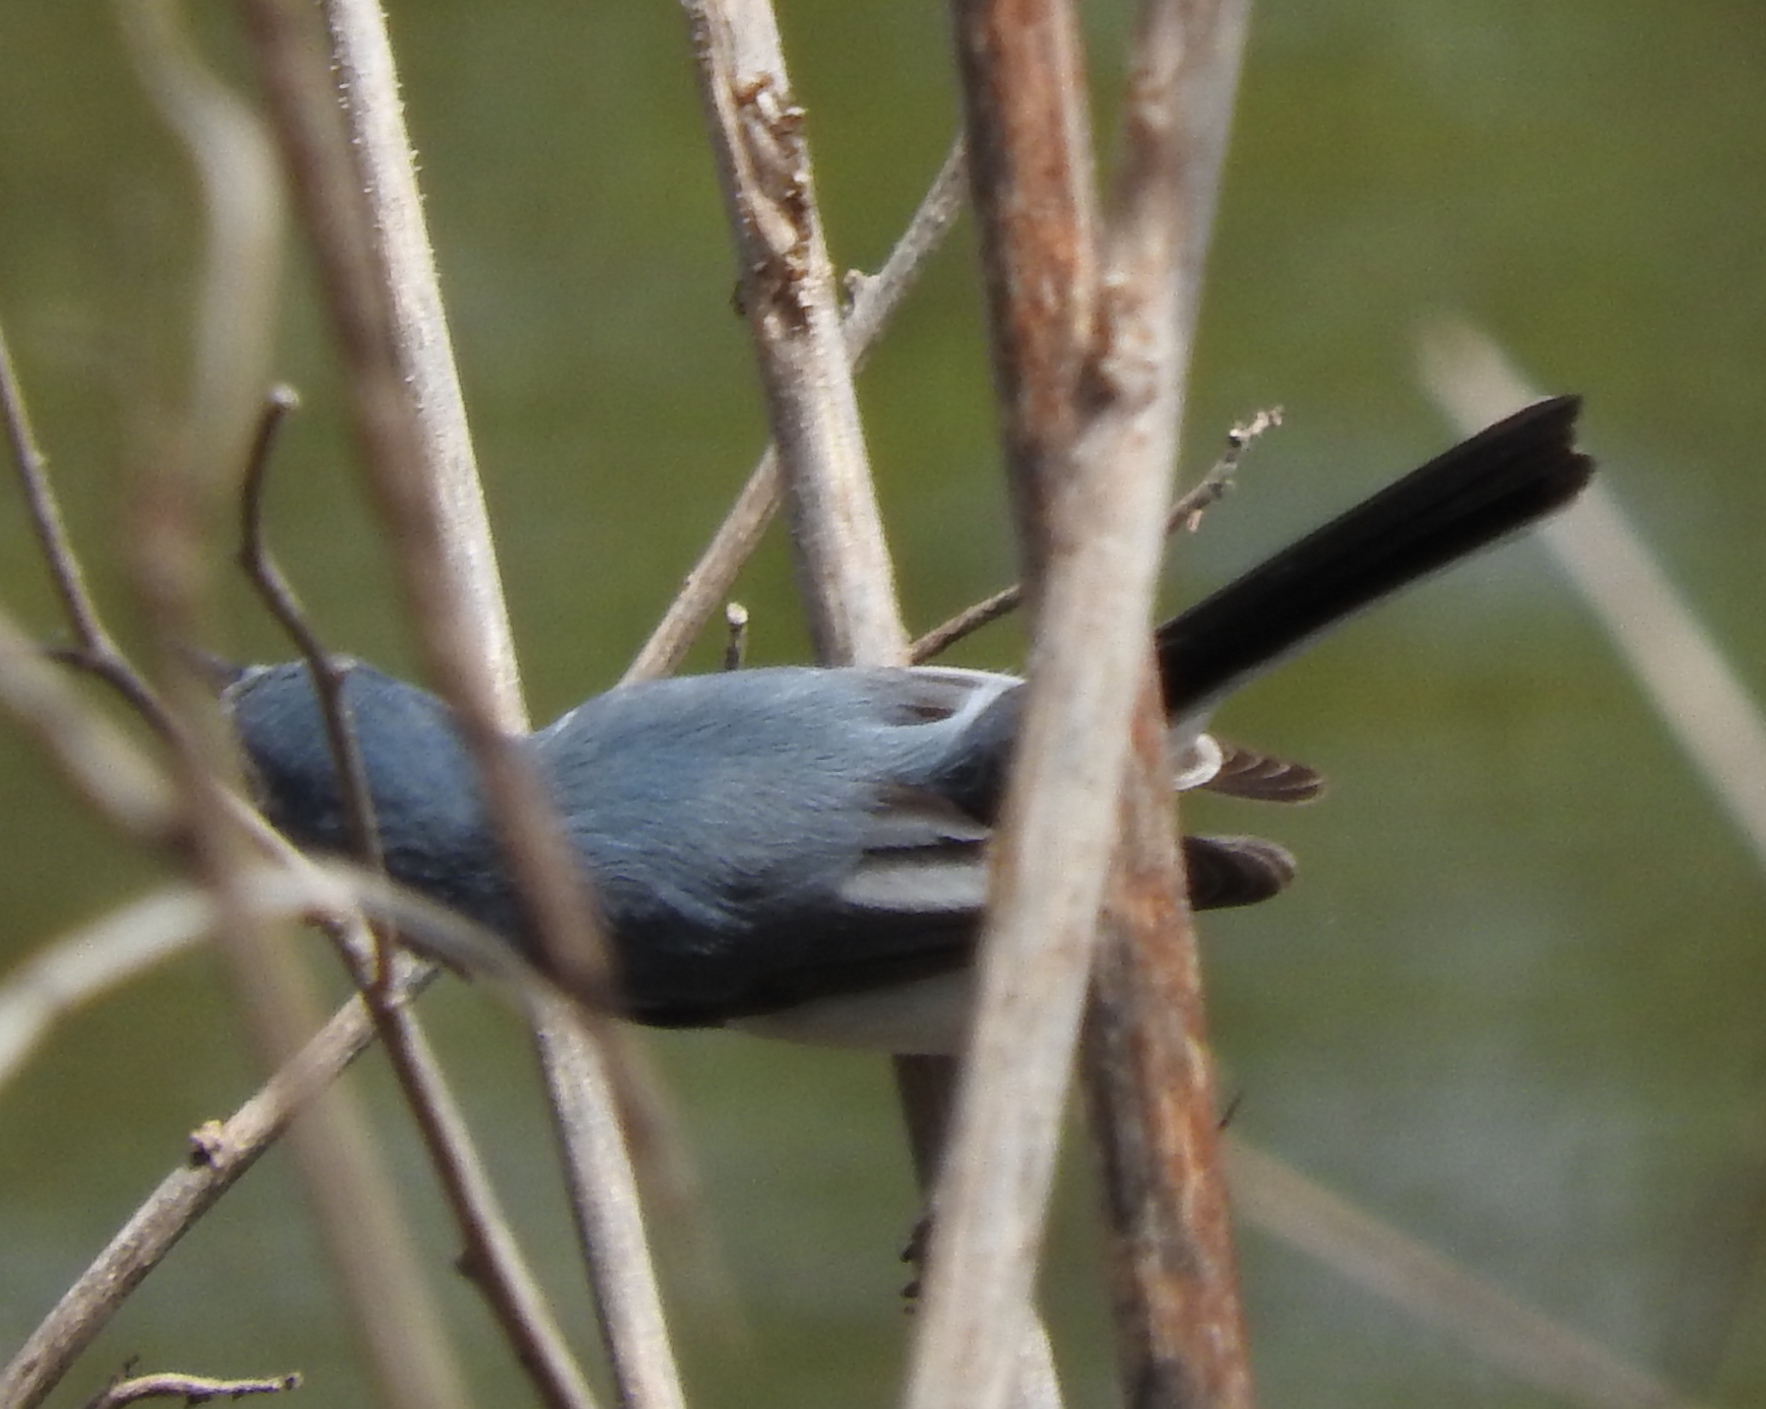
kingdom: Animalia
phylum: Chordata
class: Aves
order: Passeriformes
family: Polioptilidae
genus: Polioptila
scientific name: Polioptila
